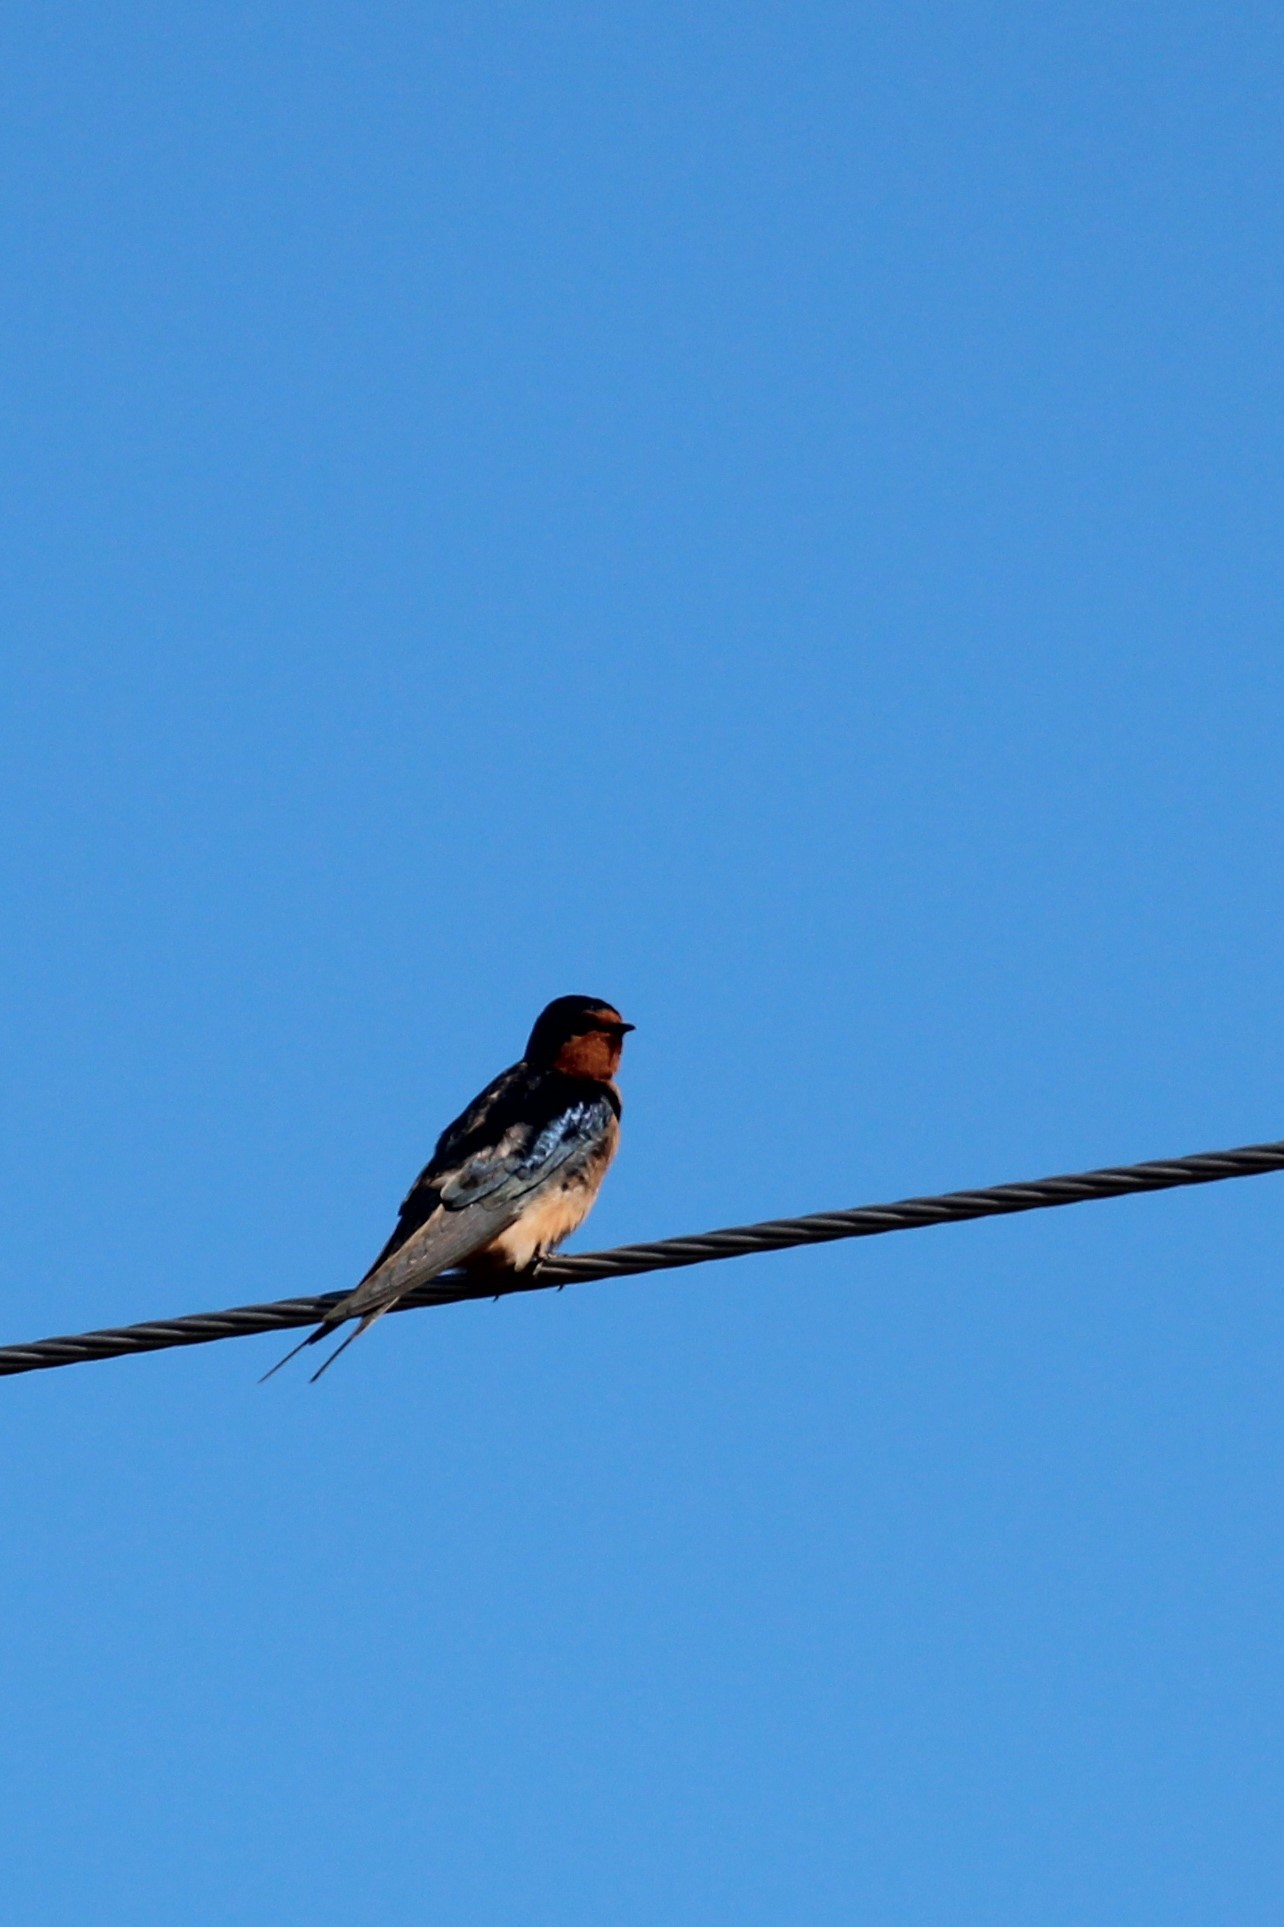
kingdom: Animalia
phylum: Chordata
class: Aves
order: Passeriformes
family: Hirundinidae
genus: Hirundo
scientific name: Hirundo rustica
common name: Barn swallow
